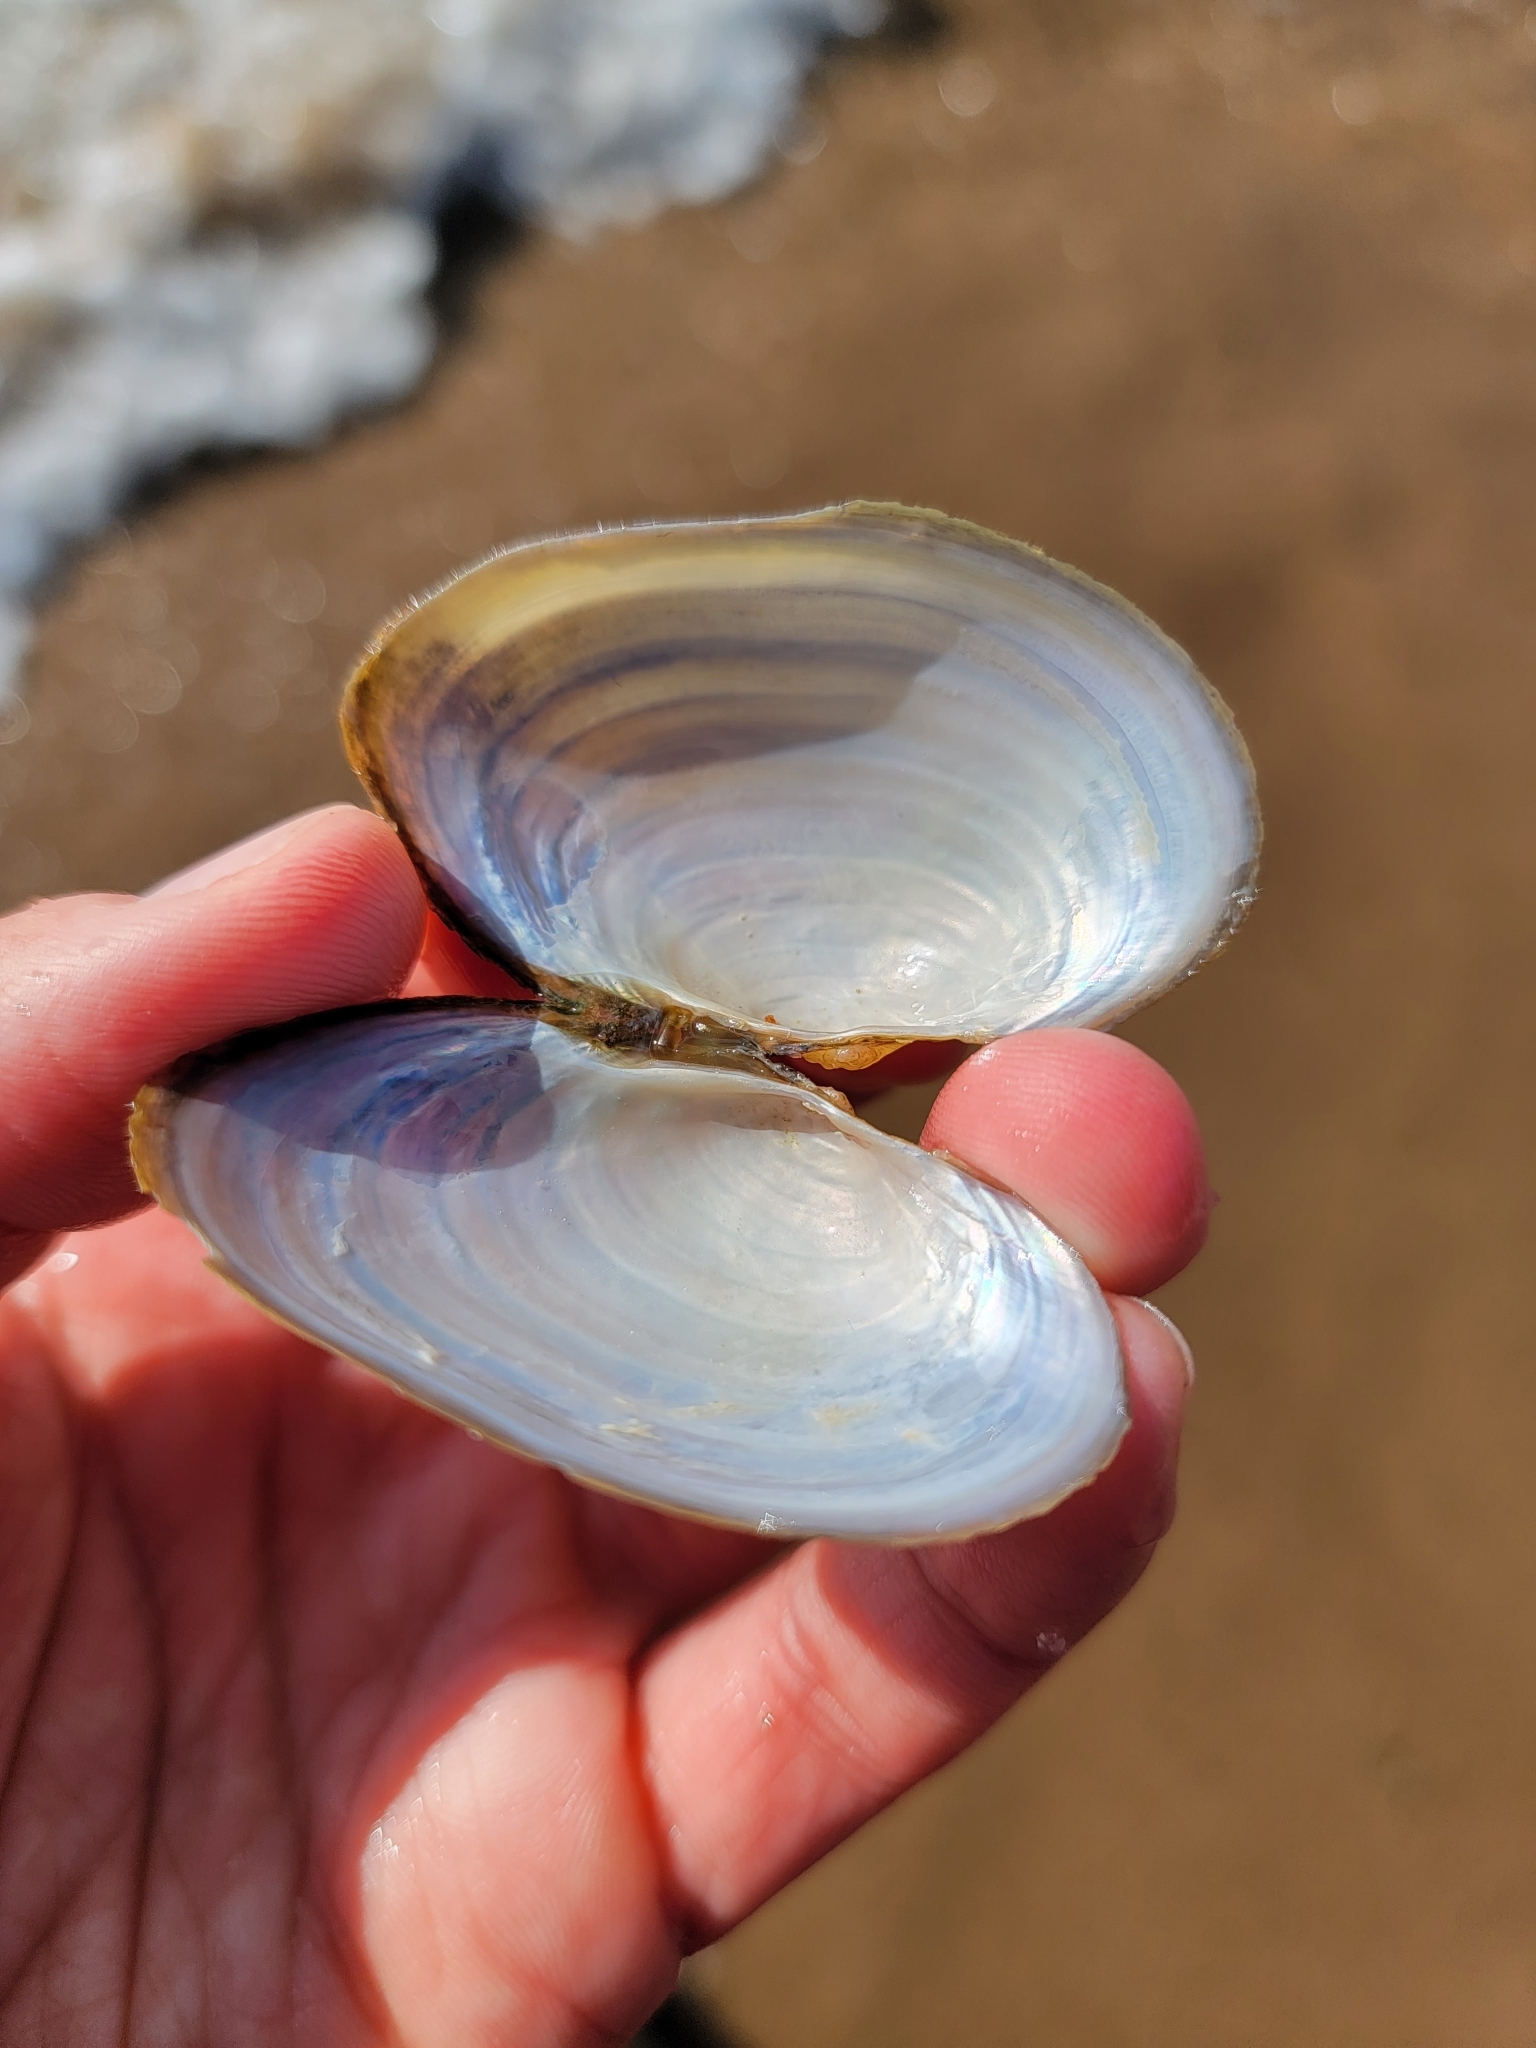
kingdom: Animalia
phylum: Mollusca
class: Bivalvia
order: Unionida
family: Unionidae
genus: Pyganodon
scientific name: Pyganodon grandis
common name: Giant floater
